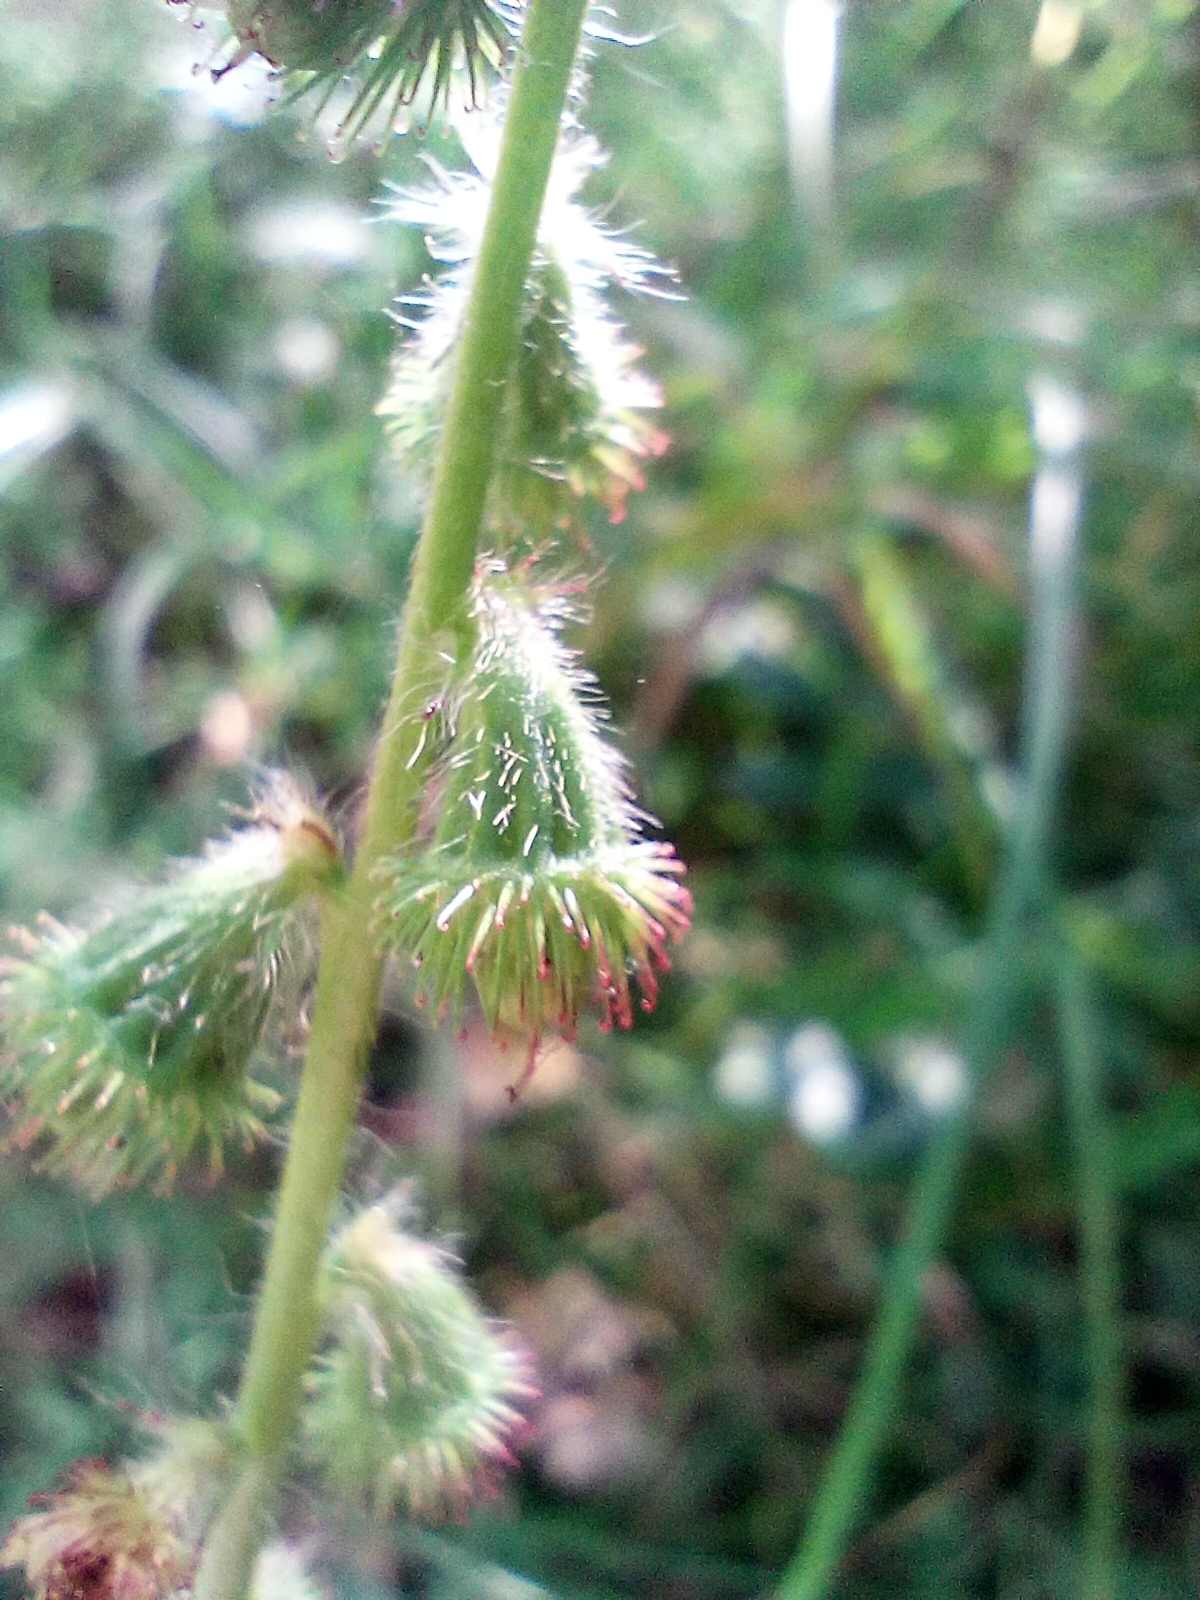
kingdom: Plantae
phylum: Tracheophyta
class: Magnoliopsida
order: Rosales
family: Rosaceae
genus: Agrimonia
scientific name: Agrimonia eupatoria
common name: Agrimony
